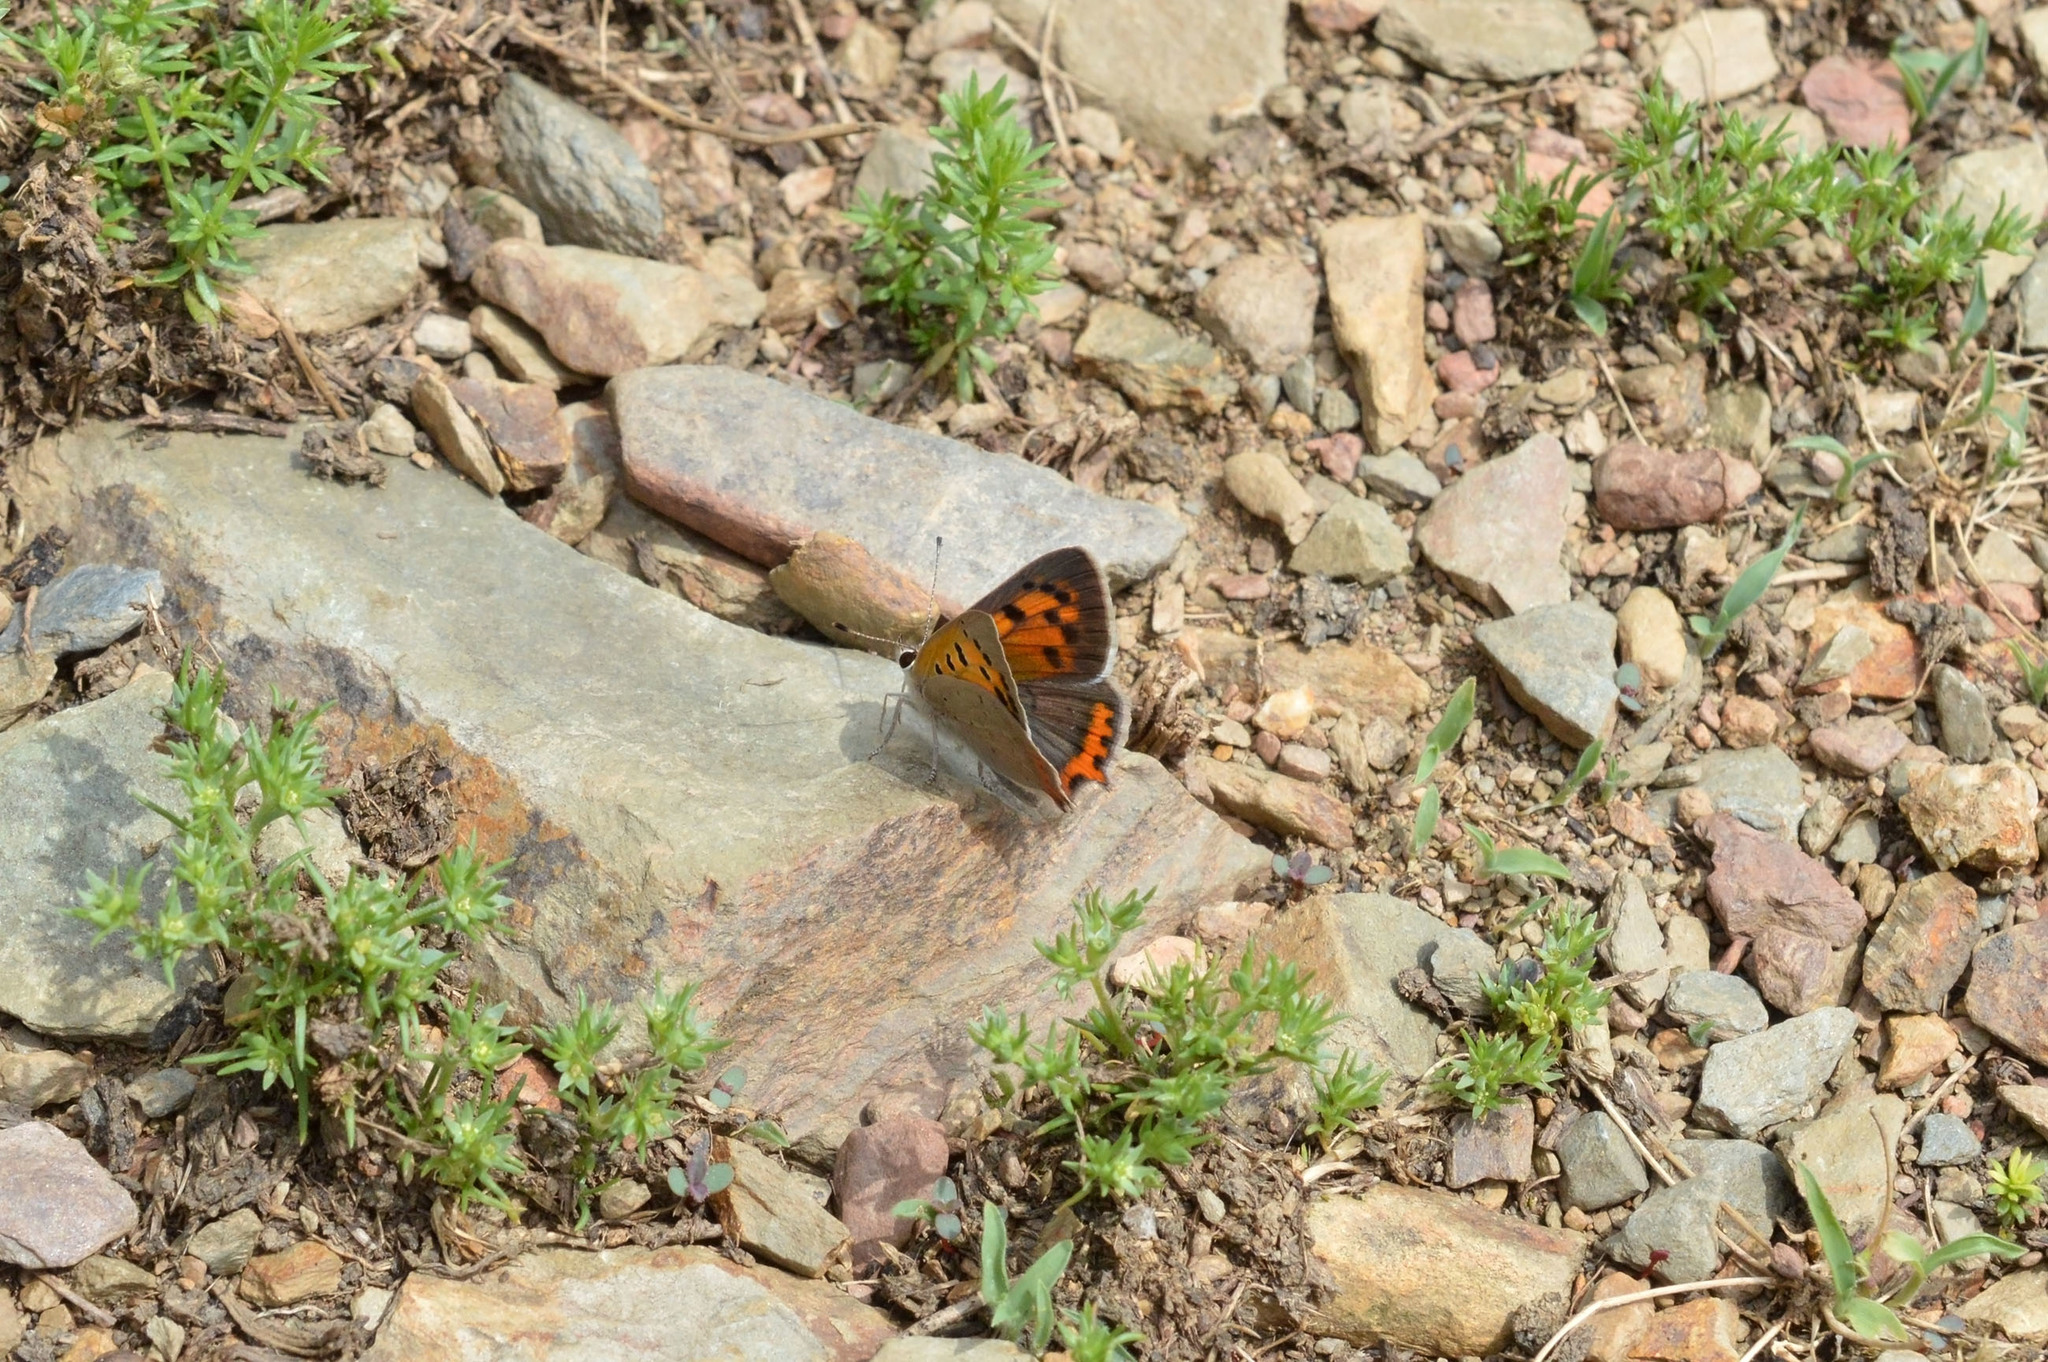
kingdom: Animalia
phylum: Arthropoda
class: Insecta
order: Lepidoptera
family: Lycaenidae
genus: Lycaena
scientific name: Lycaena phlaeas
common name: Small copper
